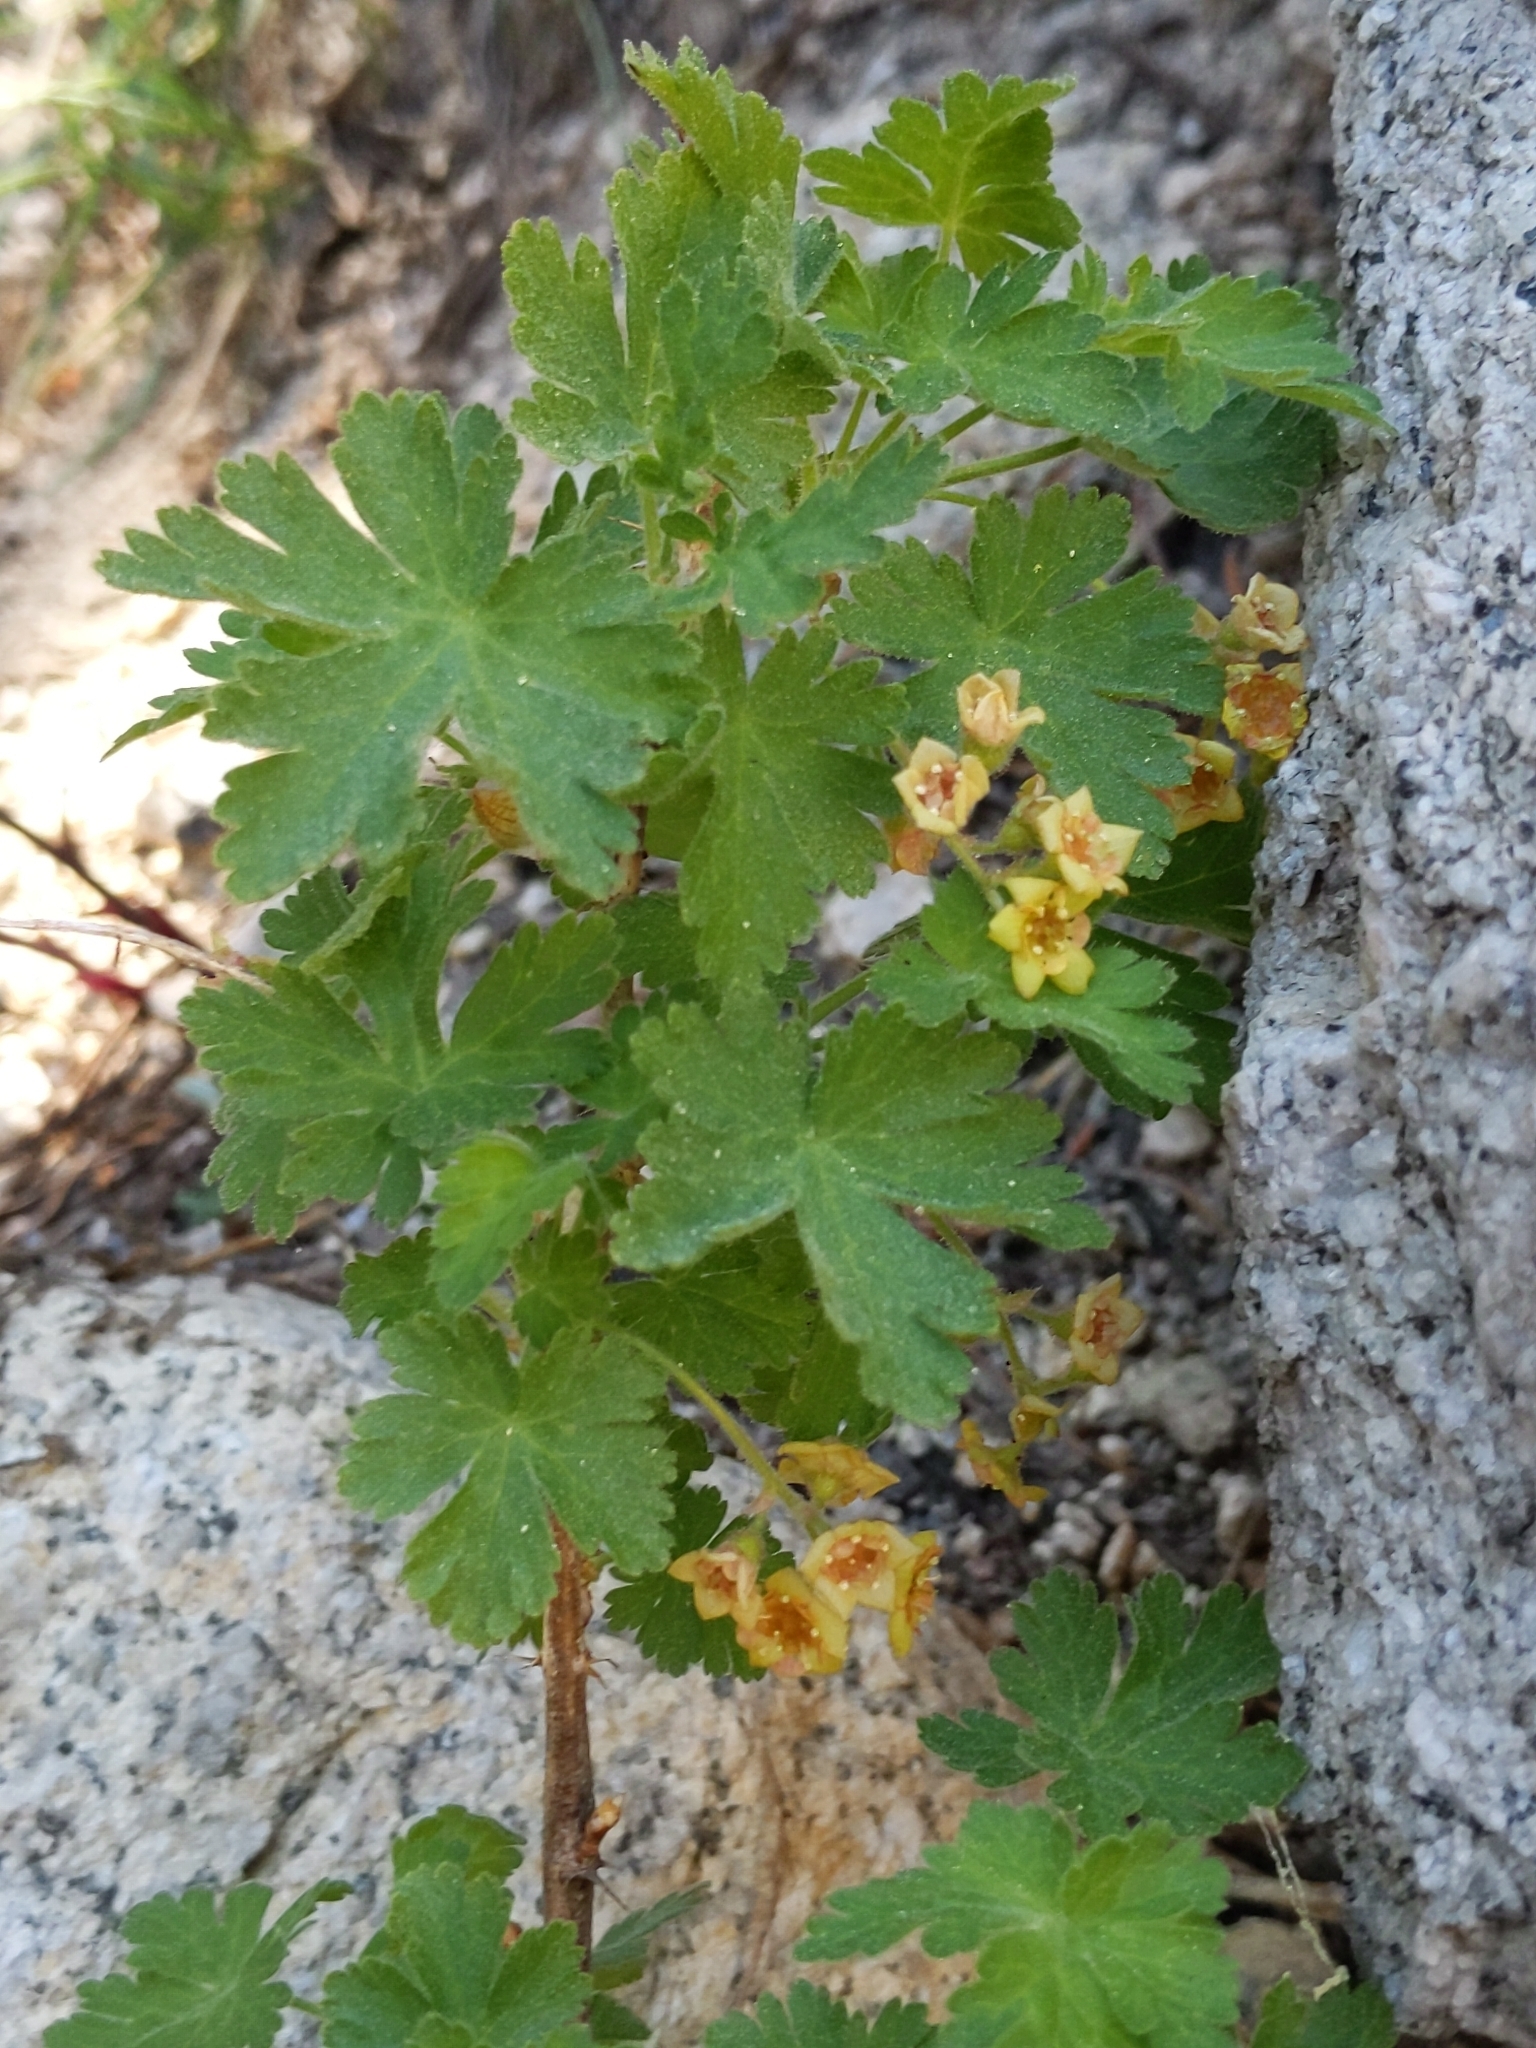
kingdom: Plantae
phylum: Tracheophyta
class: Magnoliopsida
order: Saxifragales
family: Grossulariaceae
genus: Ribes
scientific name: Ribes montigenum
